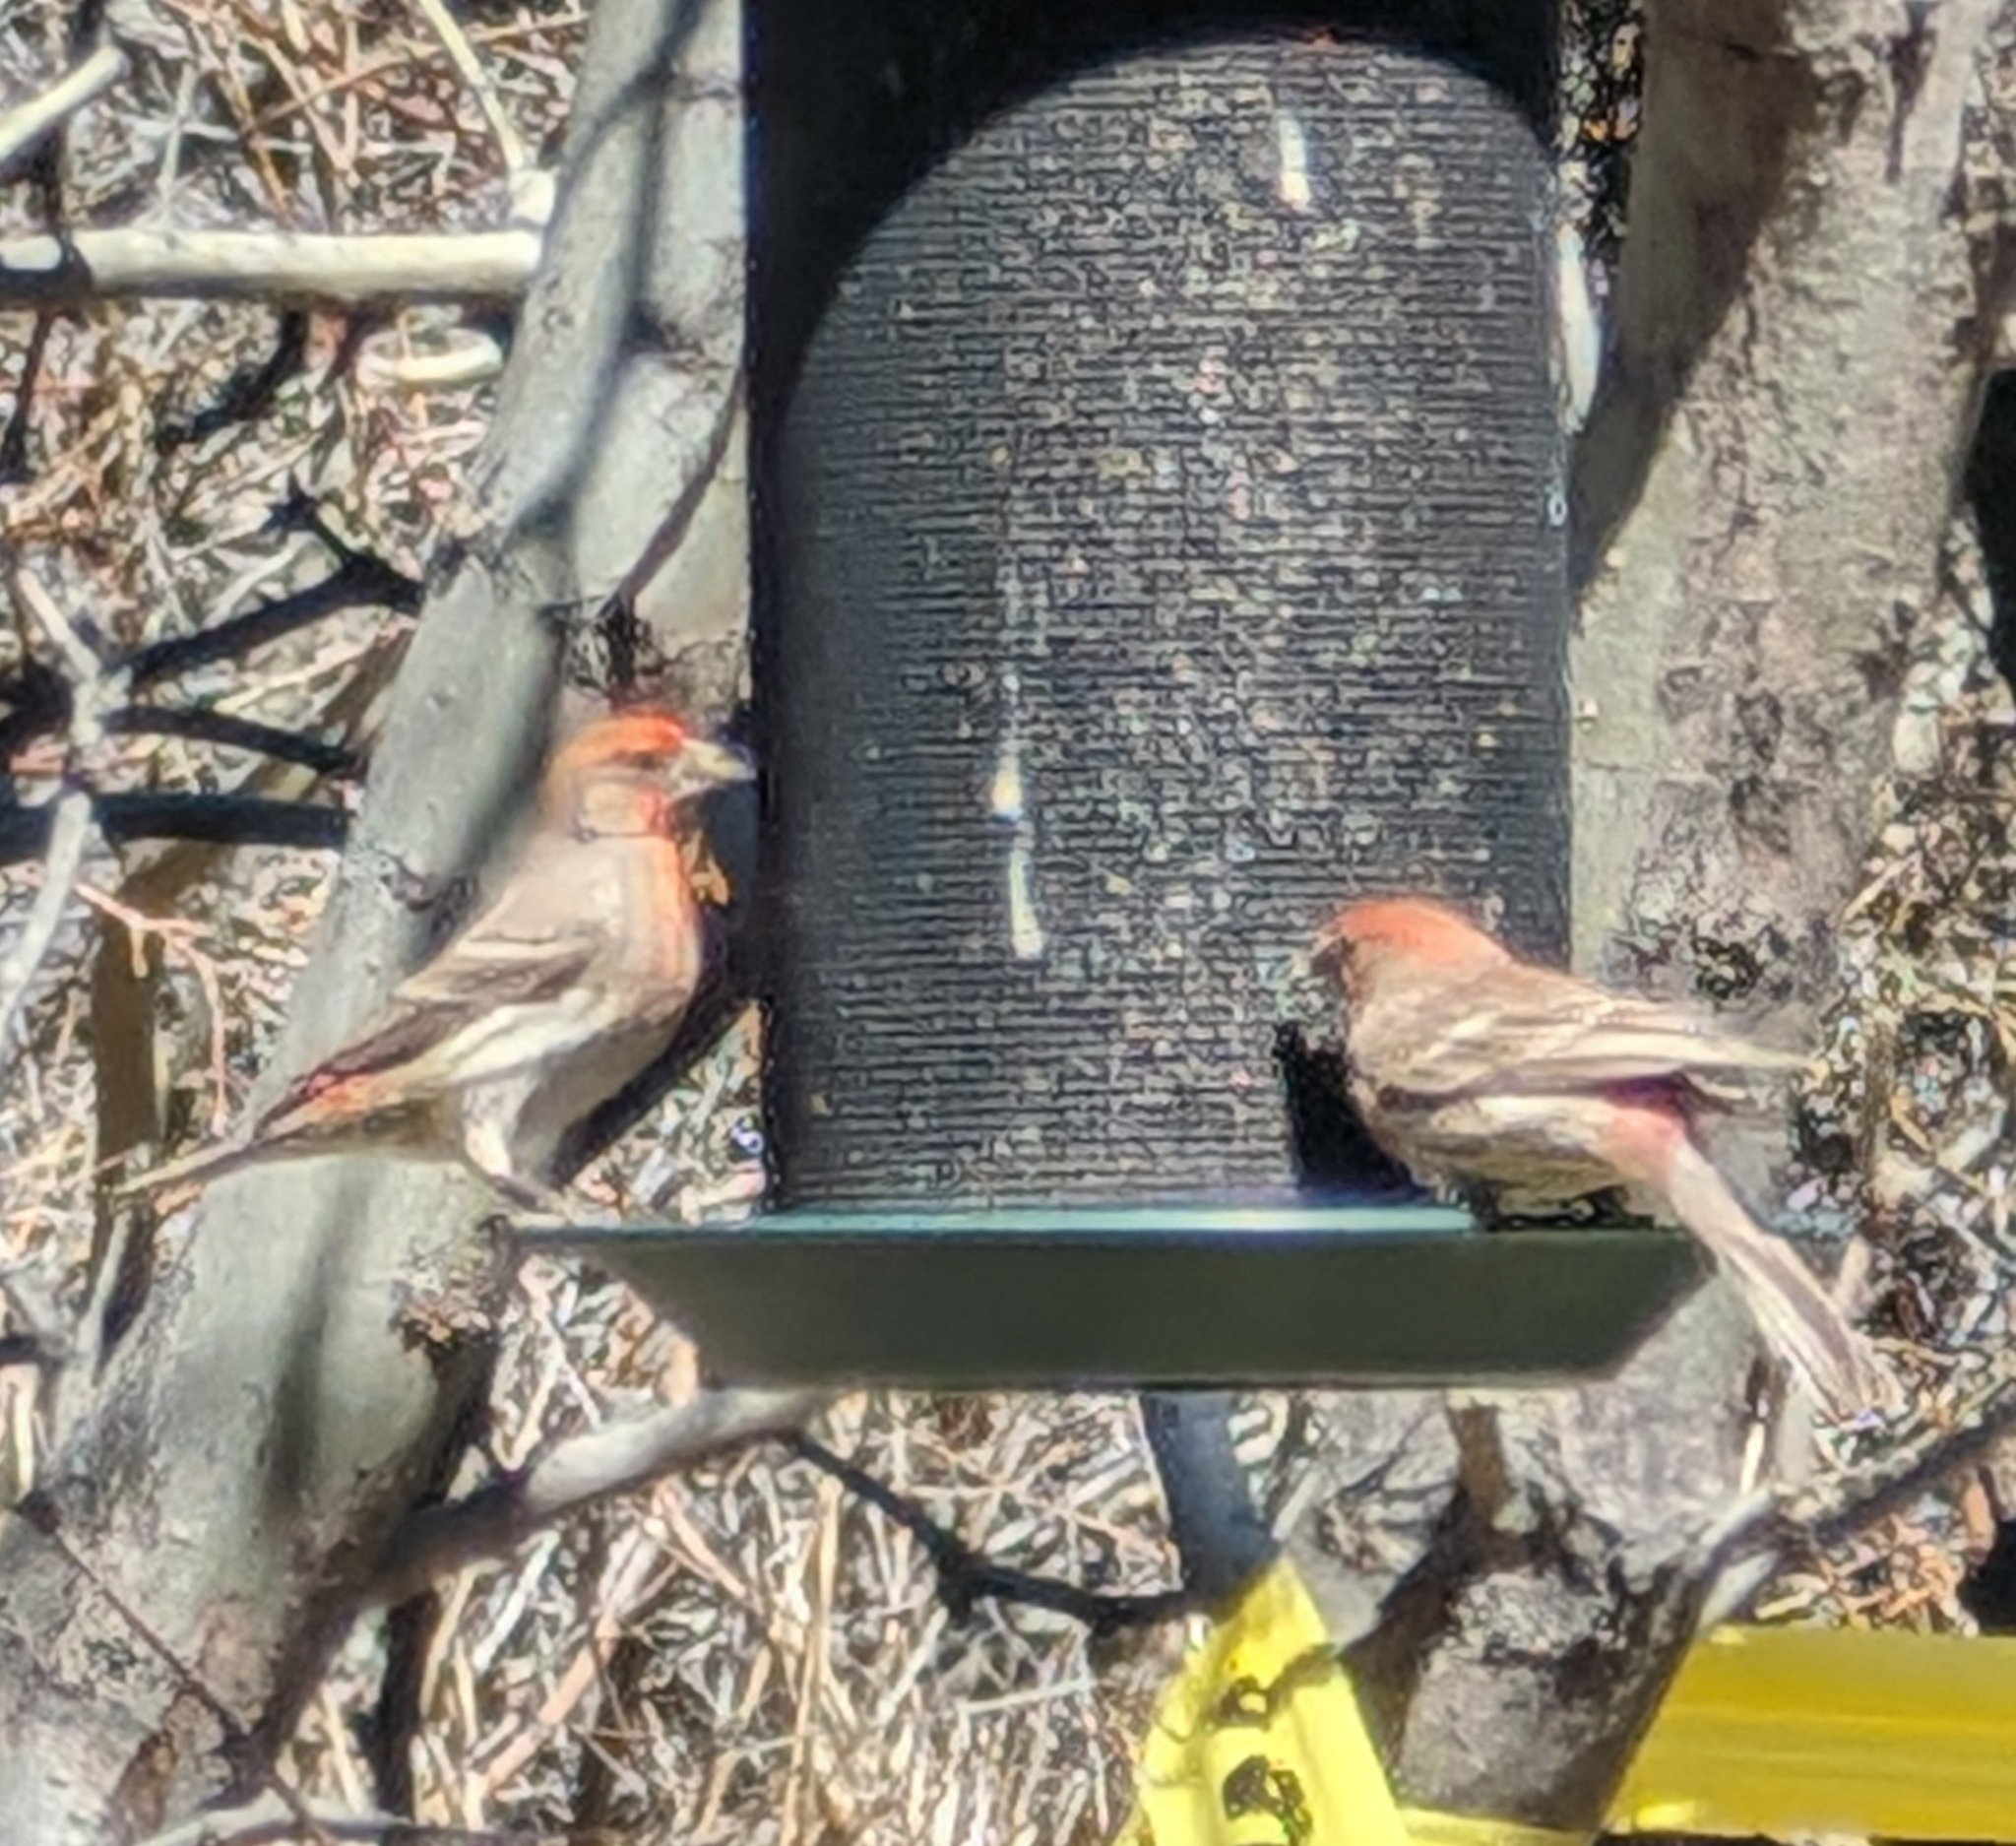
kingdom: Animalia
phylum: Chordata
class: Aves
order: Passeriformes
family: Fringillidae
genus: Haemorhous
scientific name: Haemorhous mexicanus
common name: House finch
